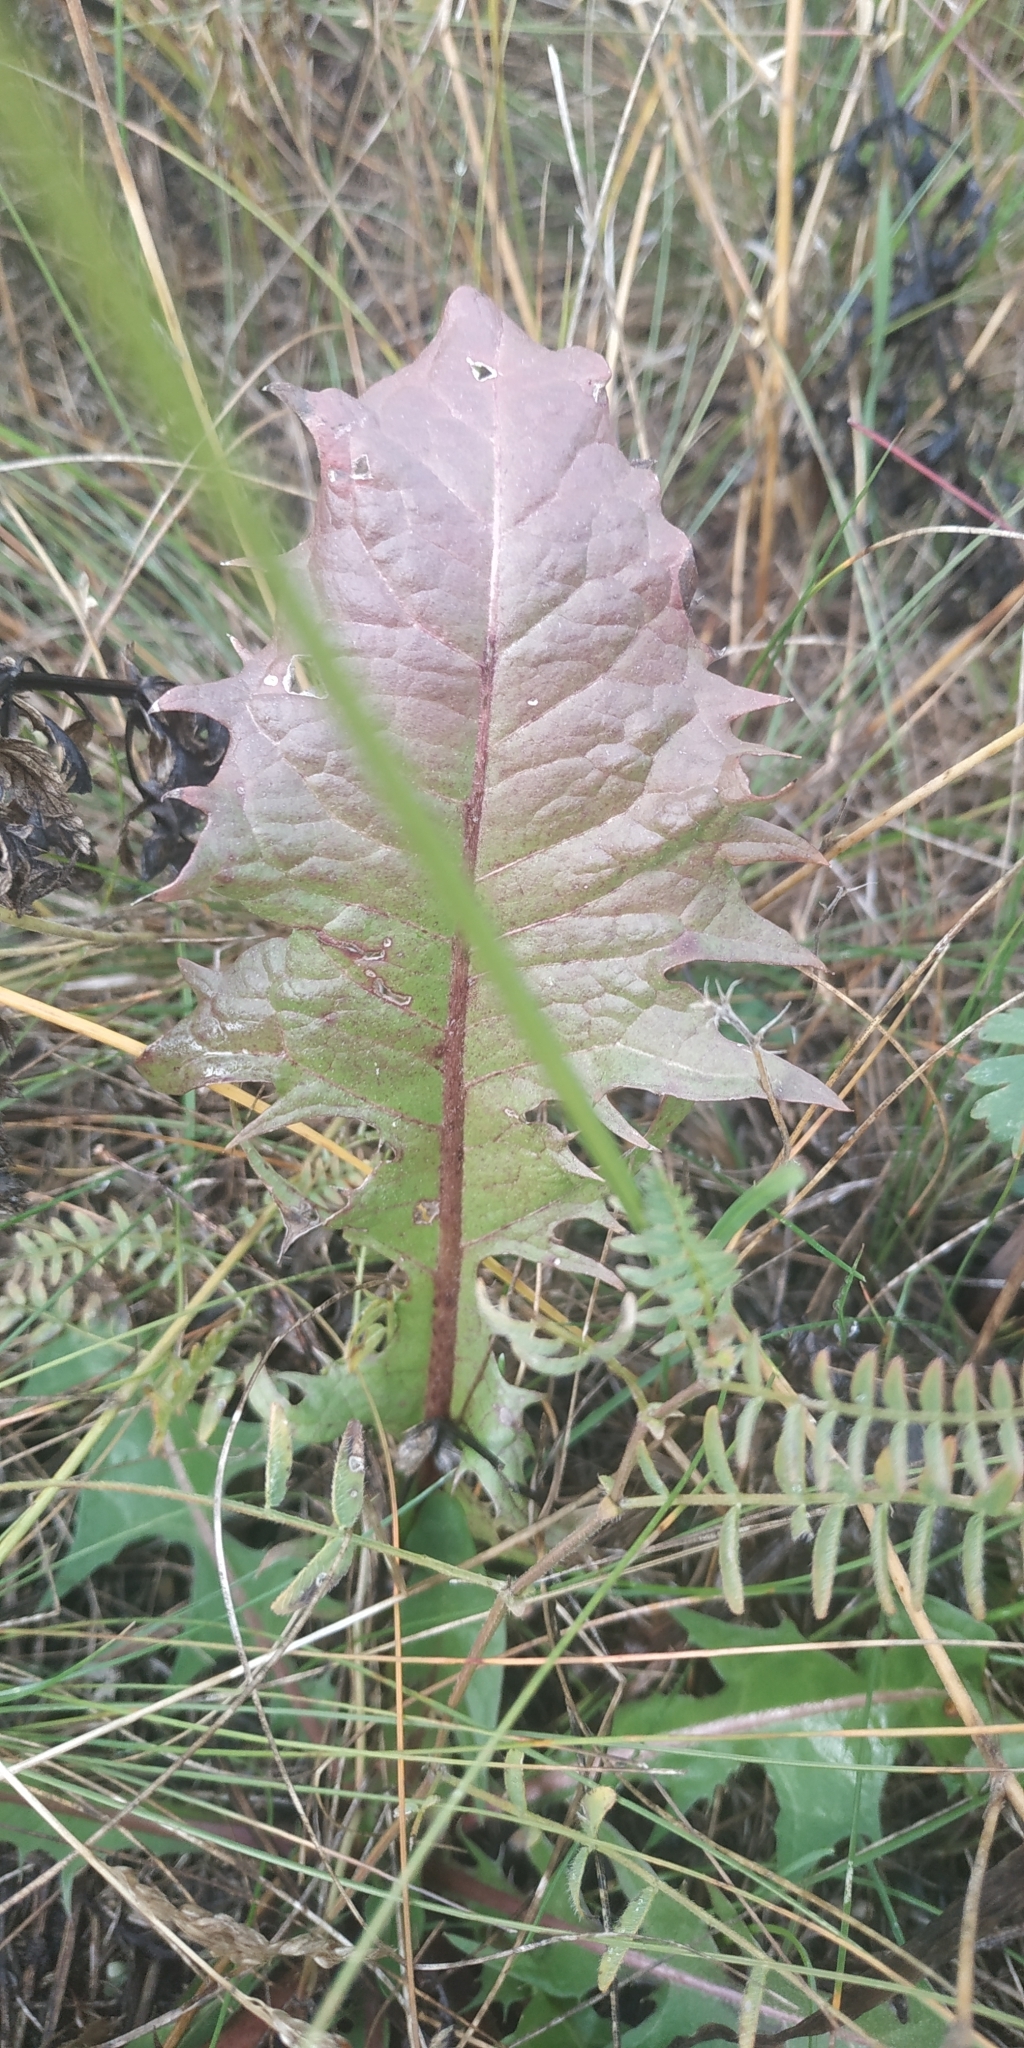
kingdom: Plantae
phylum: Tracheophyta
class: Magnoliopsida
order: Asterales
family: Asteraceae
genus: Taraxacum
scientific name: Taraxacum officinale
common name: Common dandelion
